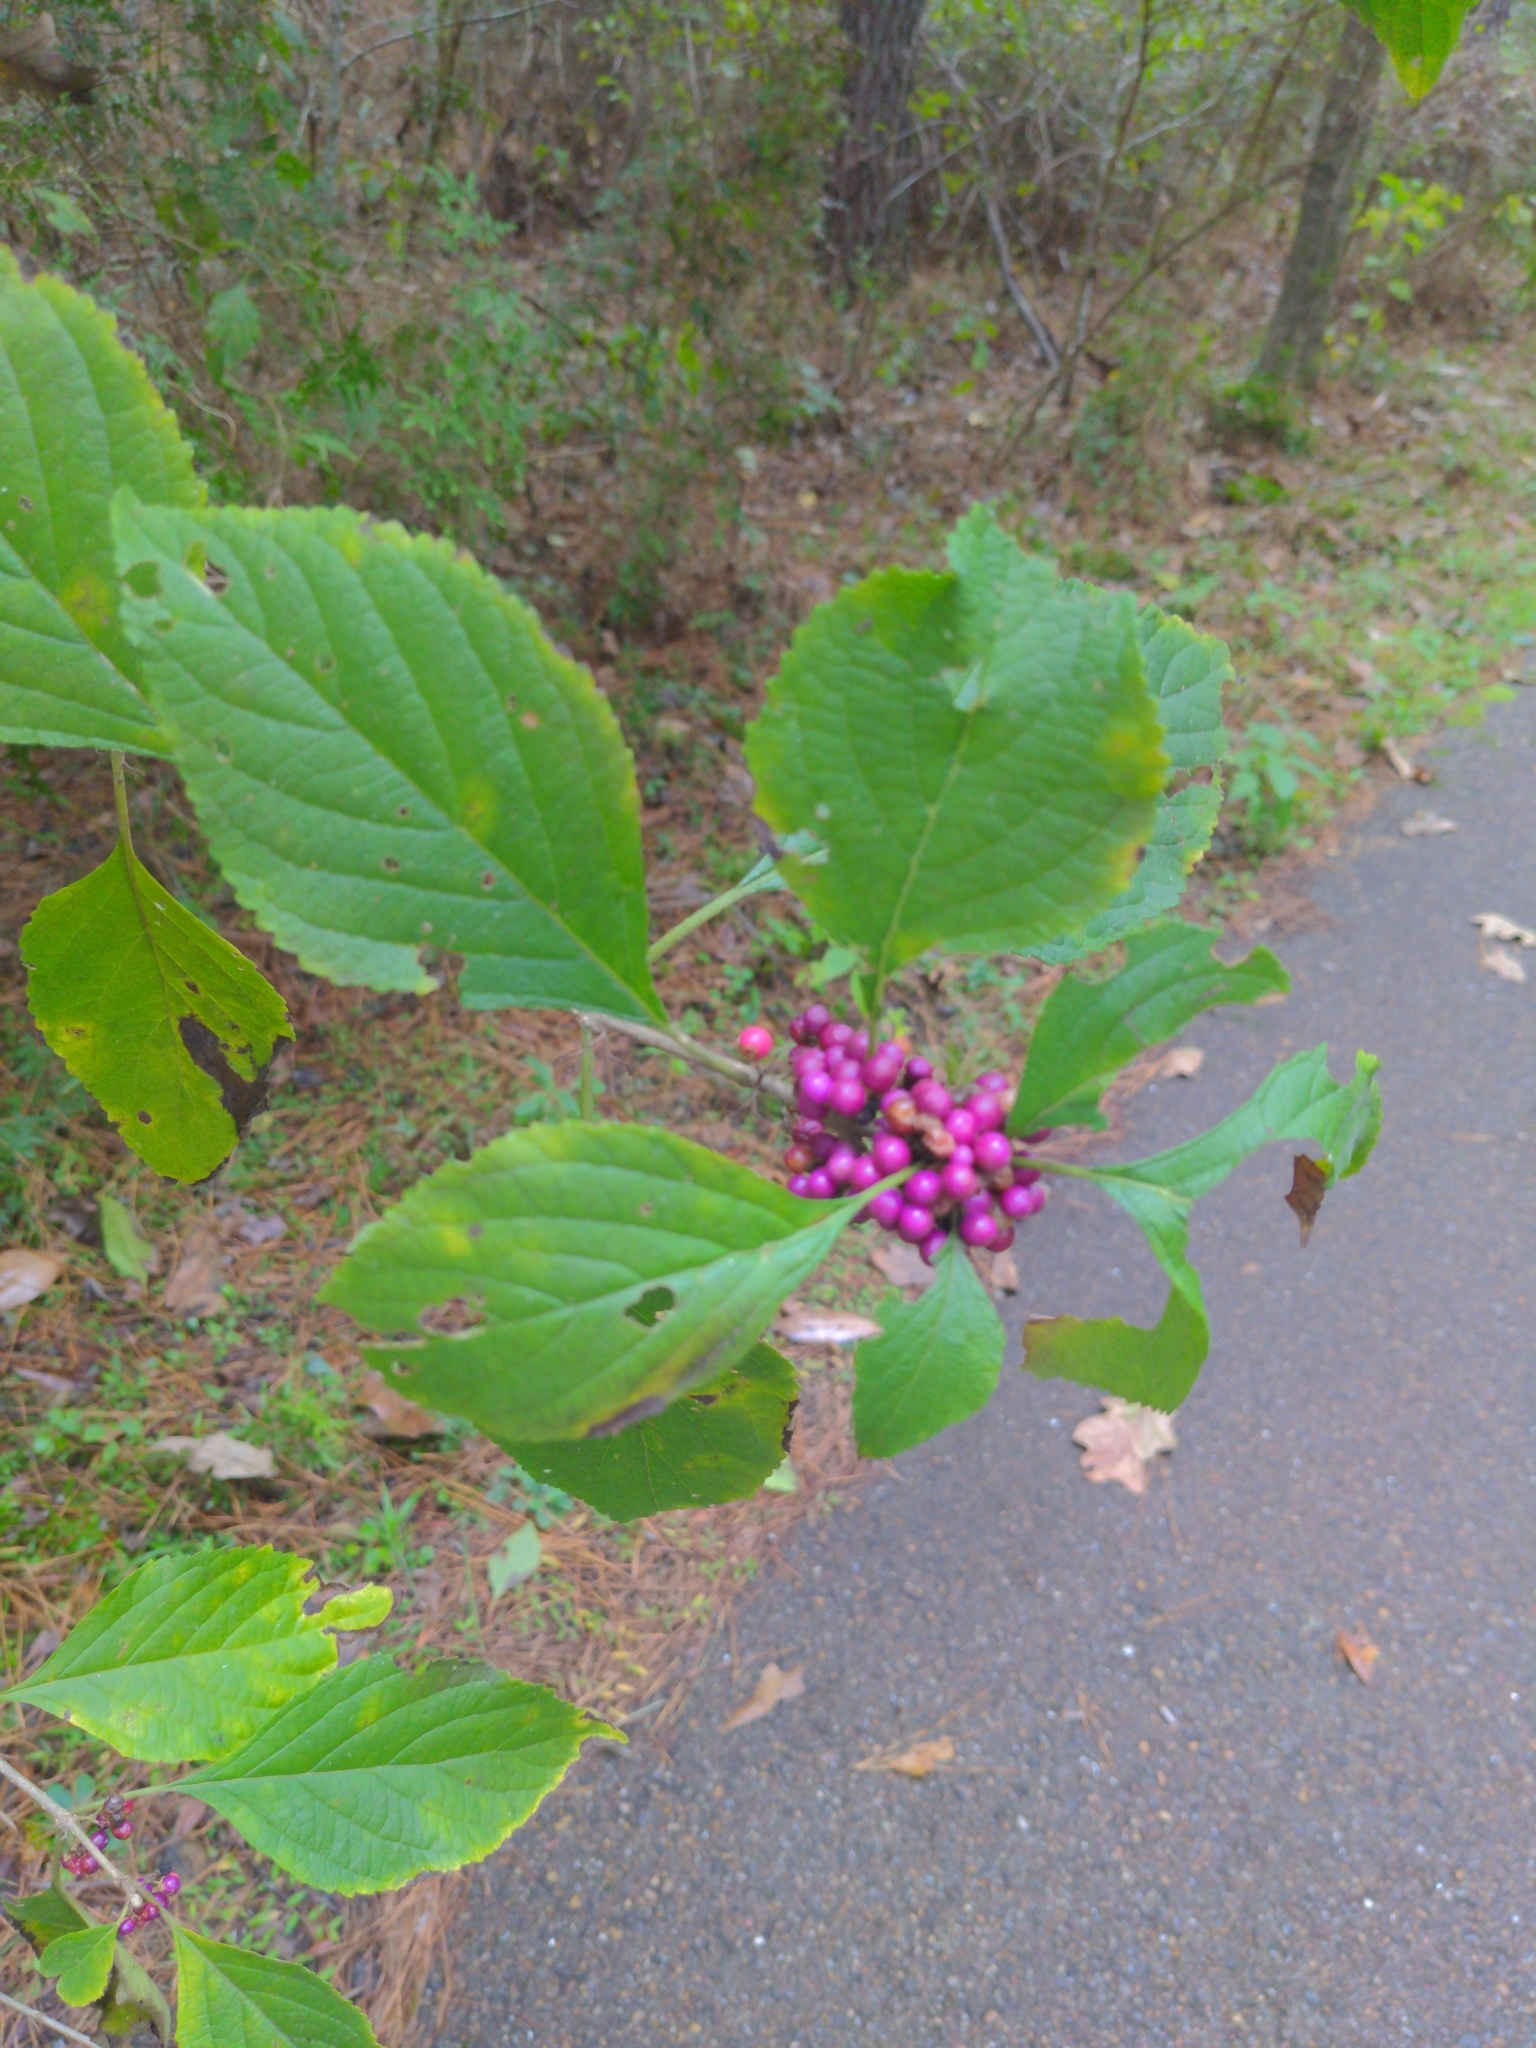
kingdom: Plantae
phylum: Tracheophyta
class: Magnoliopsida
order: Lamiales
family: Lamiaceae
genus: Callicarpa
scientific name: Callicarpa americana
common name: American beautyberry
